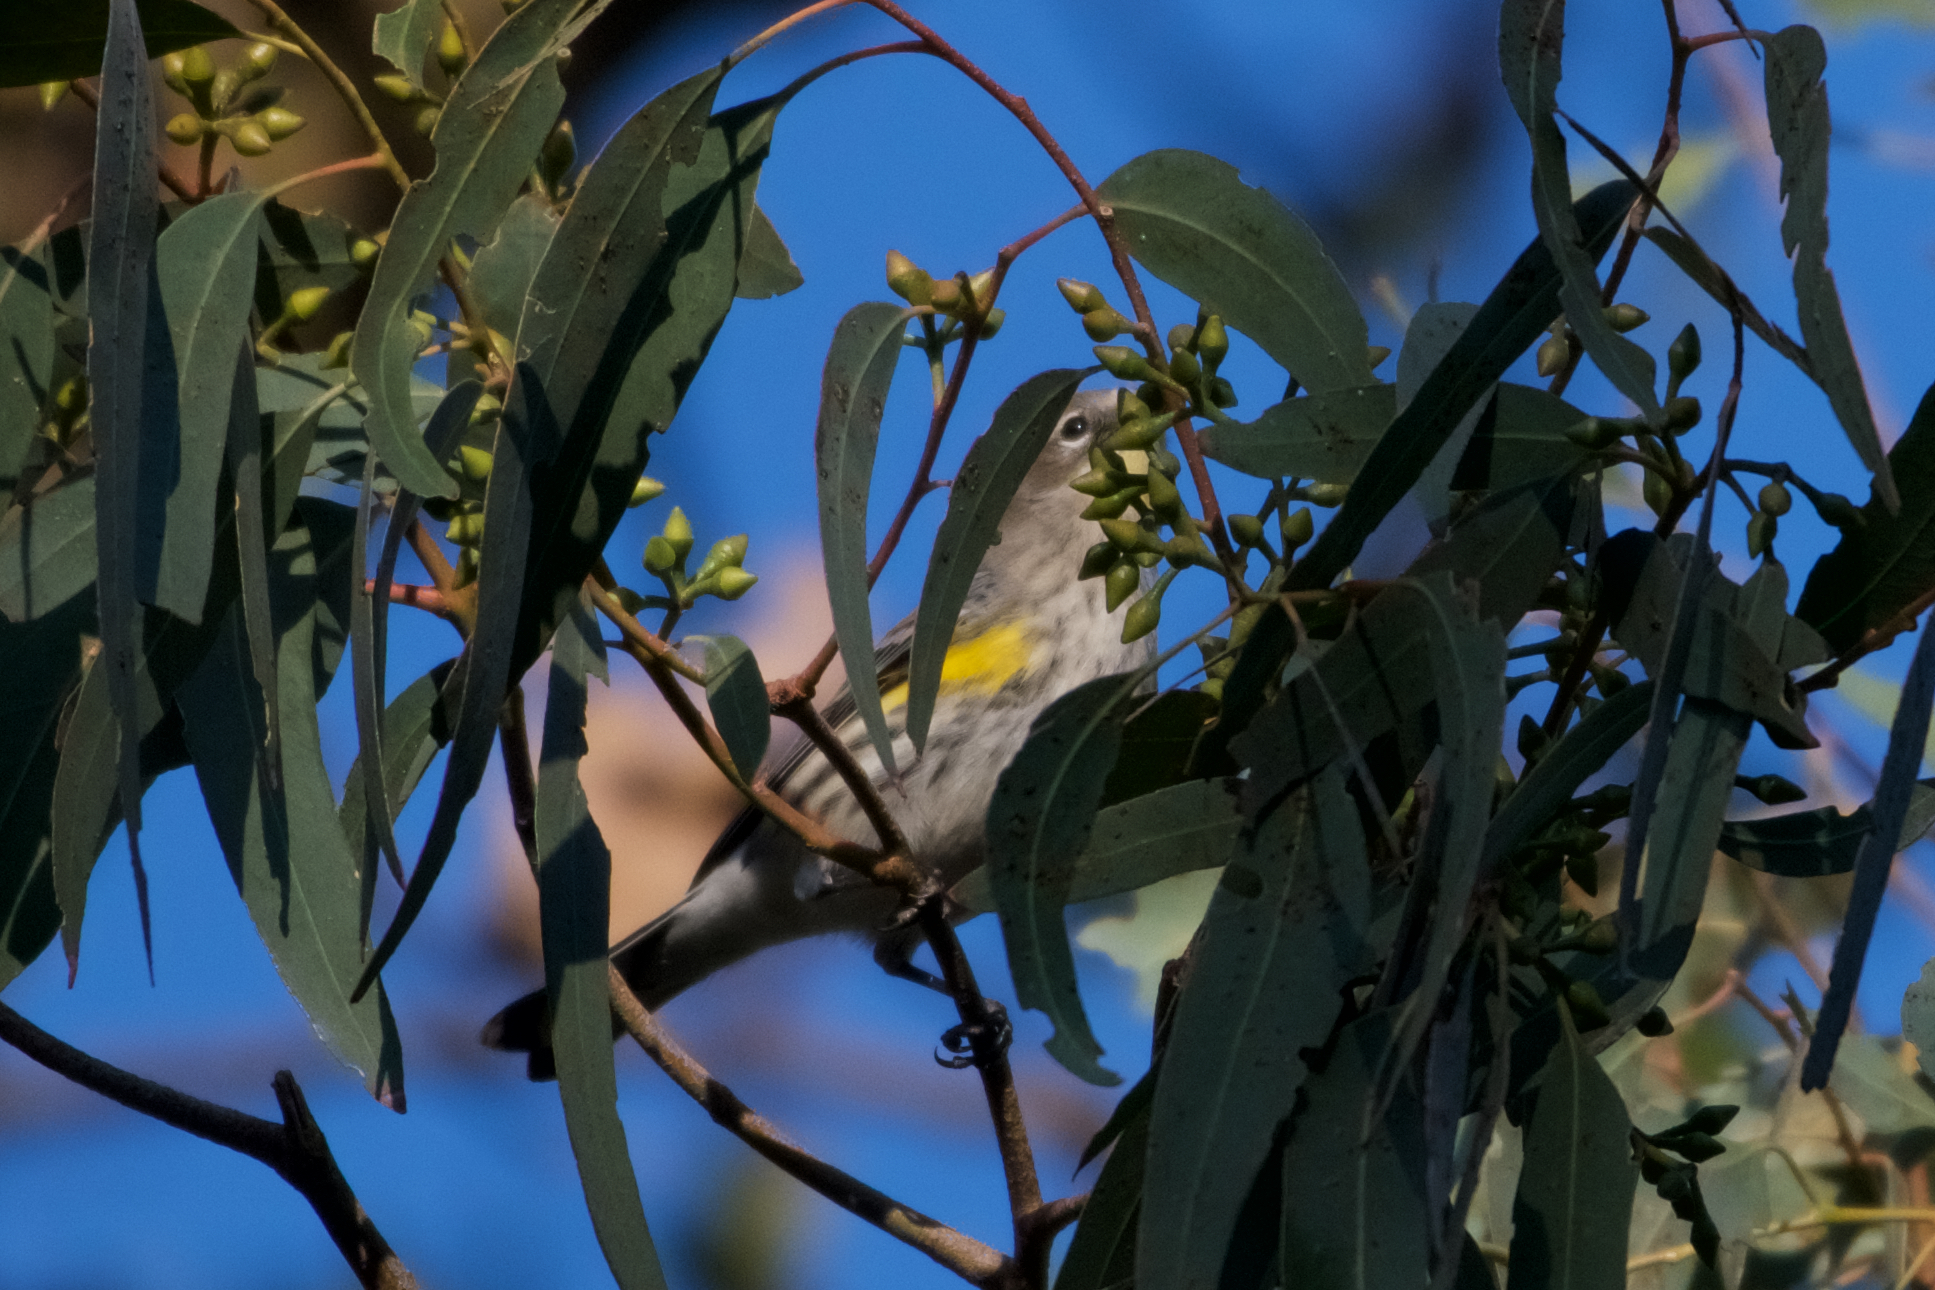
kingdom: Animalia
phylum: Chordata
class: Aves
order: Passeriformes
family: Parulidae
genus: Setophaga
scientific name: Setophaga coronata
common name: Myrtle warbler
